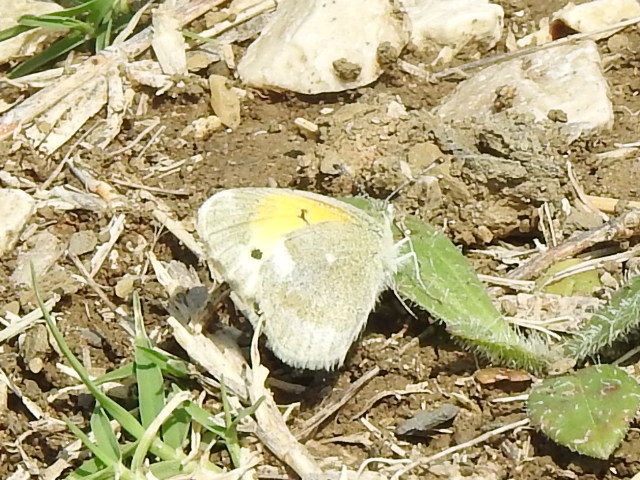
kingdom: Animalia
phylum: Arthropoda
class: Insecta
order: Lepidoptera
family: Pieridae
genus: Nathalis
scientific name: Nathalis iole
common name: Dainty sulphur
